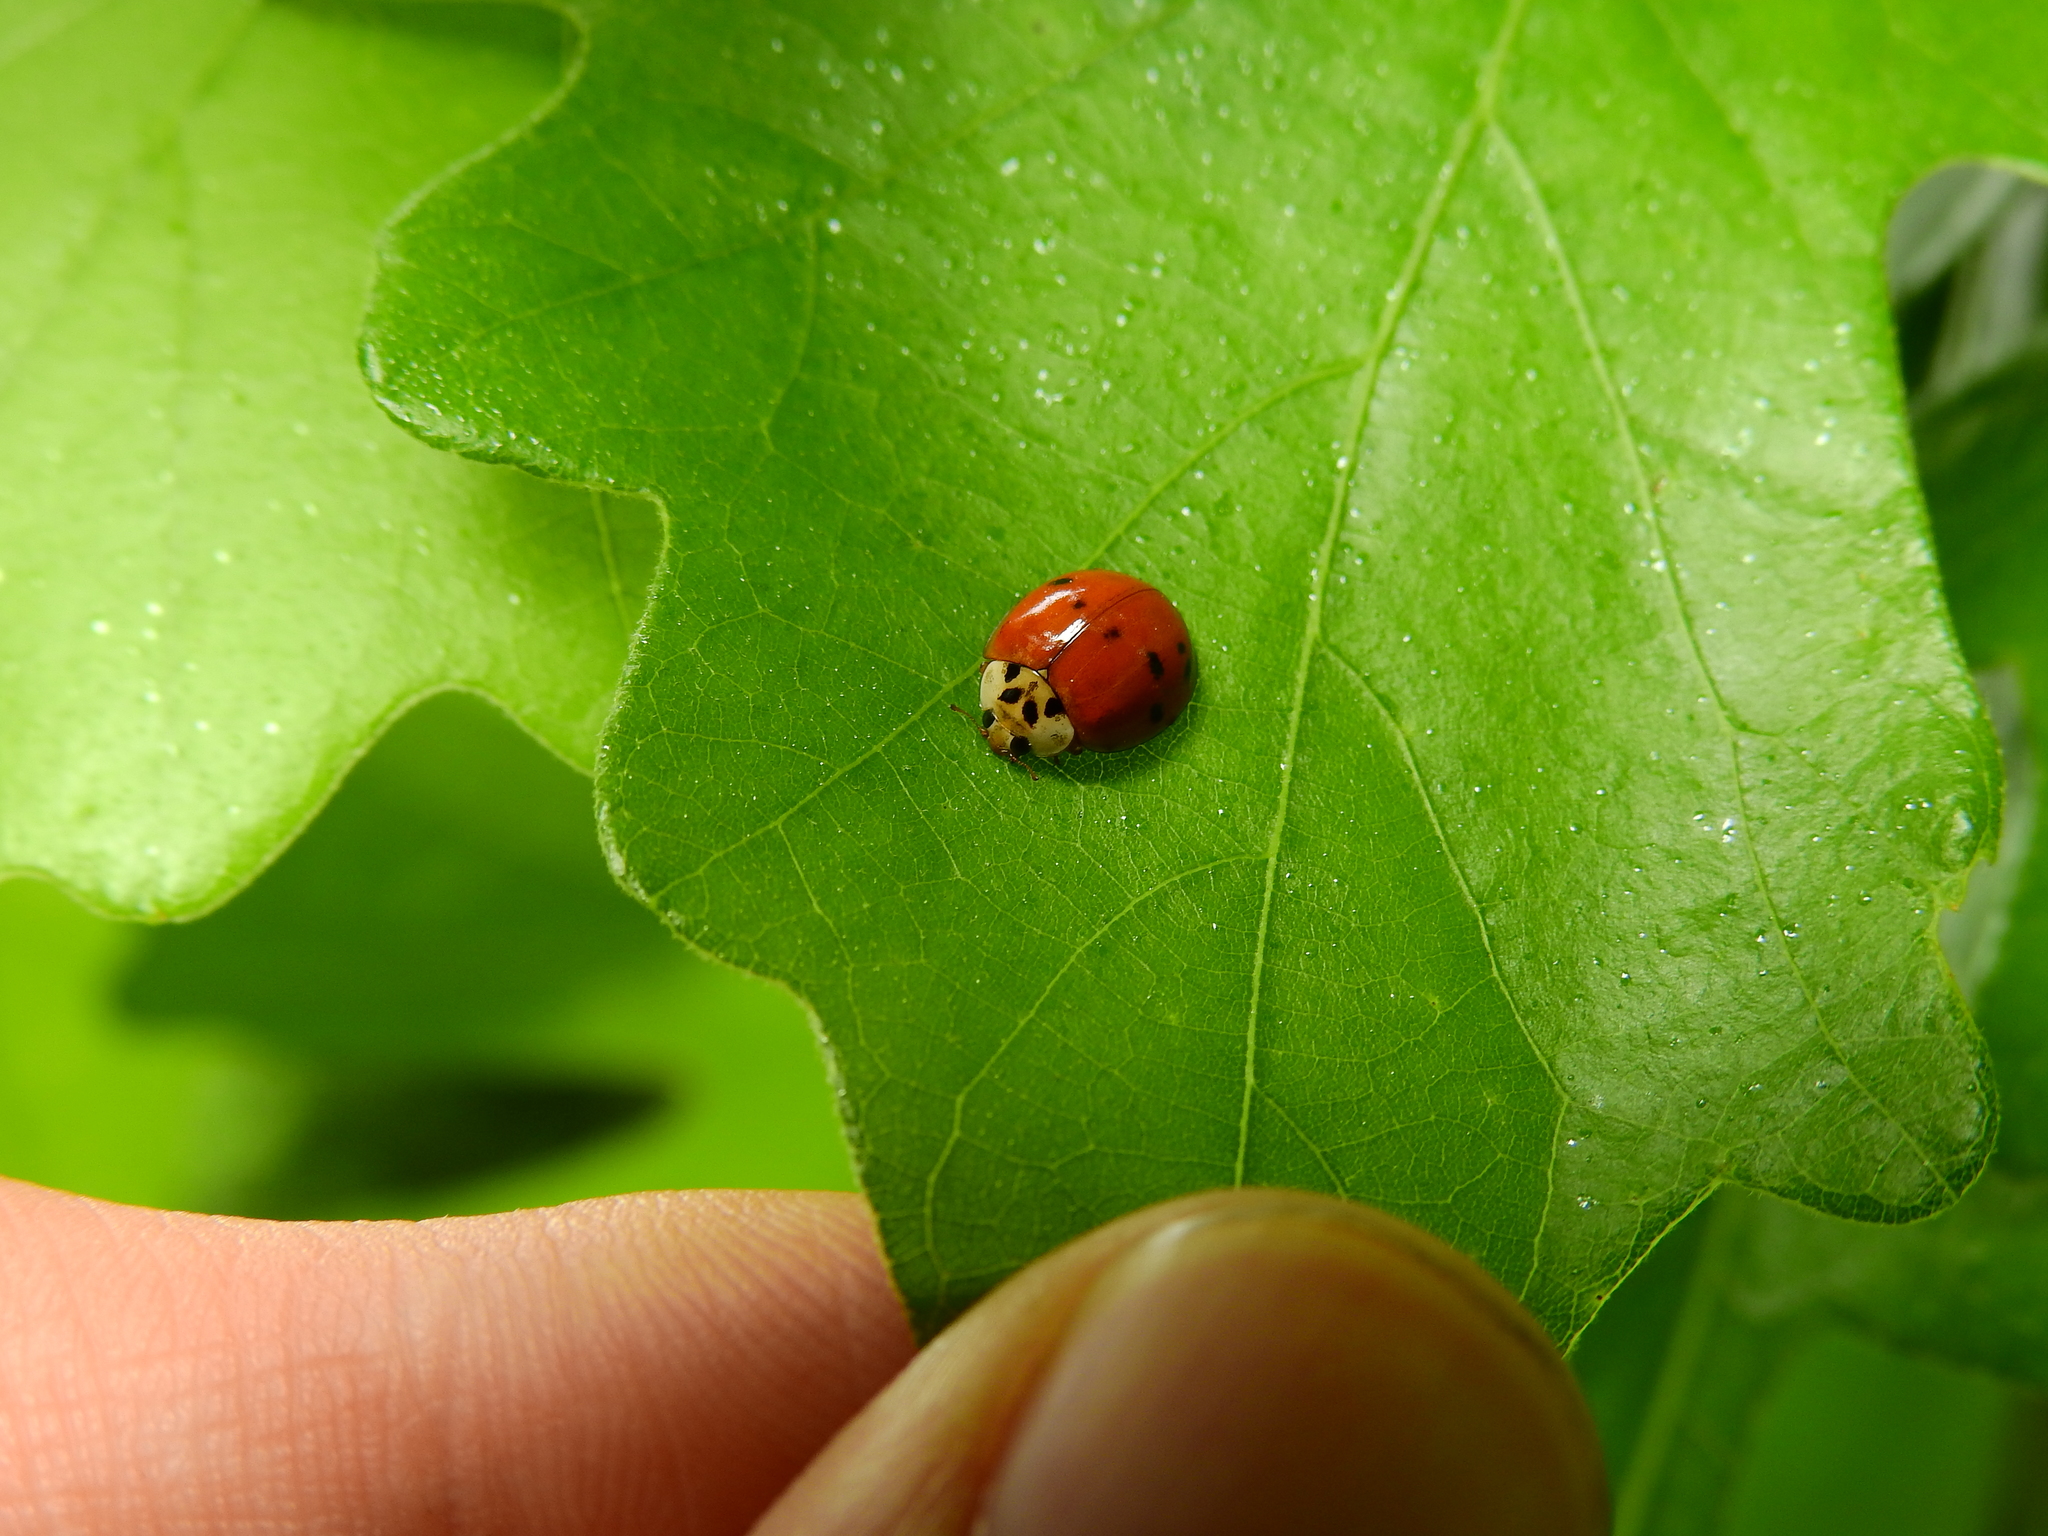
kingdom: Animalia
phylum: Arthropoda
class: Insecta
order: Coleoptera
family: Coccinellidae
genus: Harmonia
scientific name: Harmonia axyridis
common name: Harlequin ladybird
